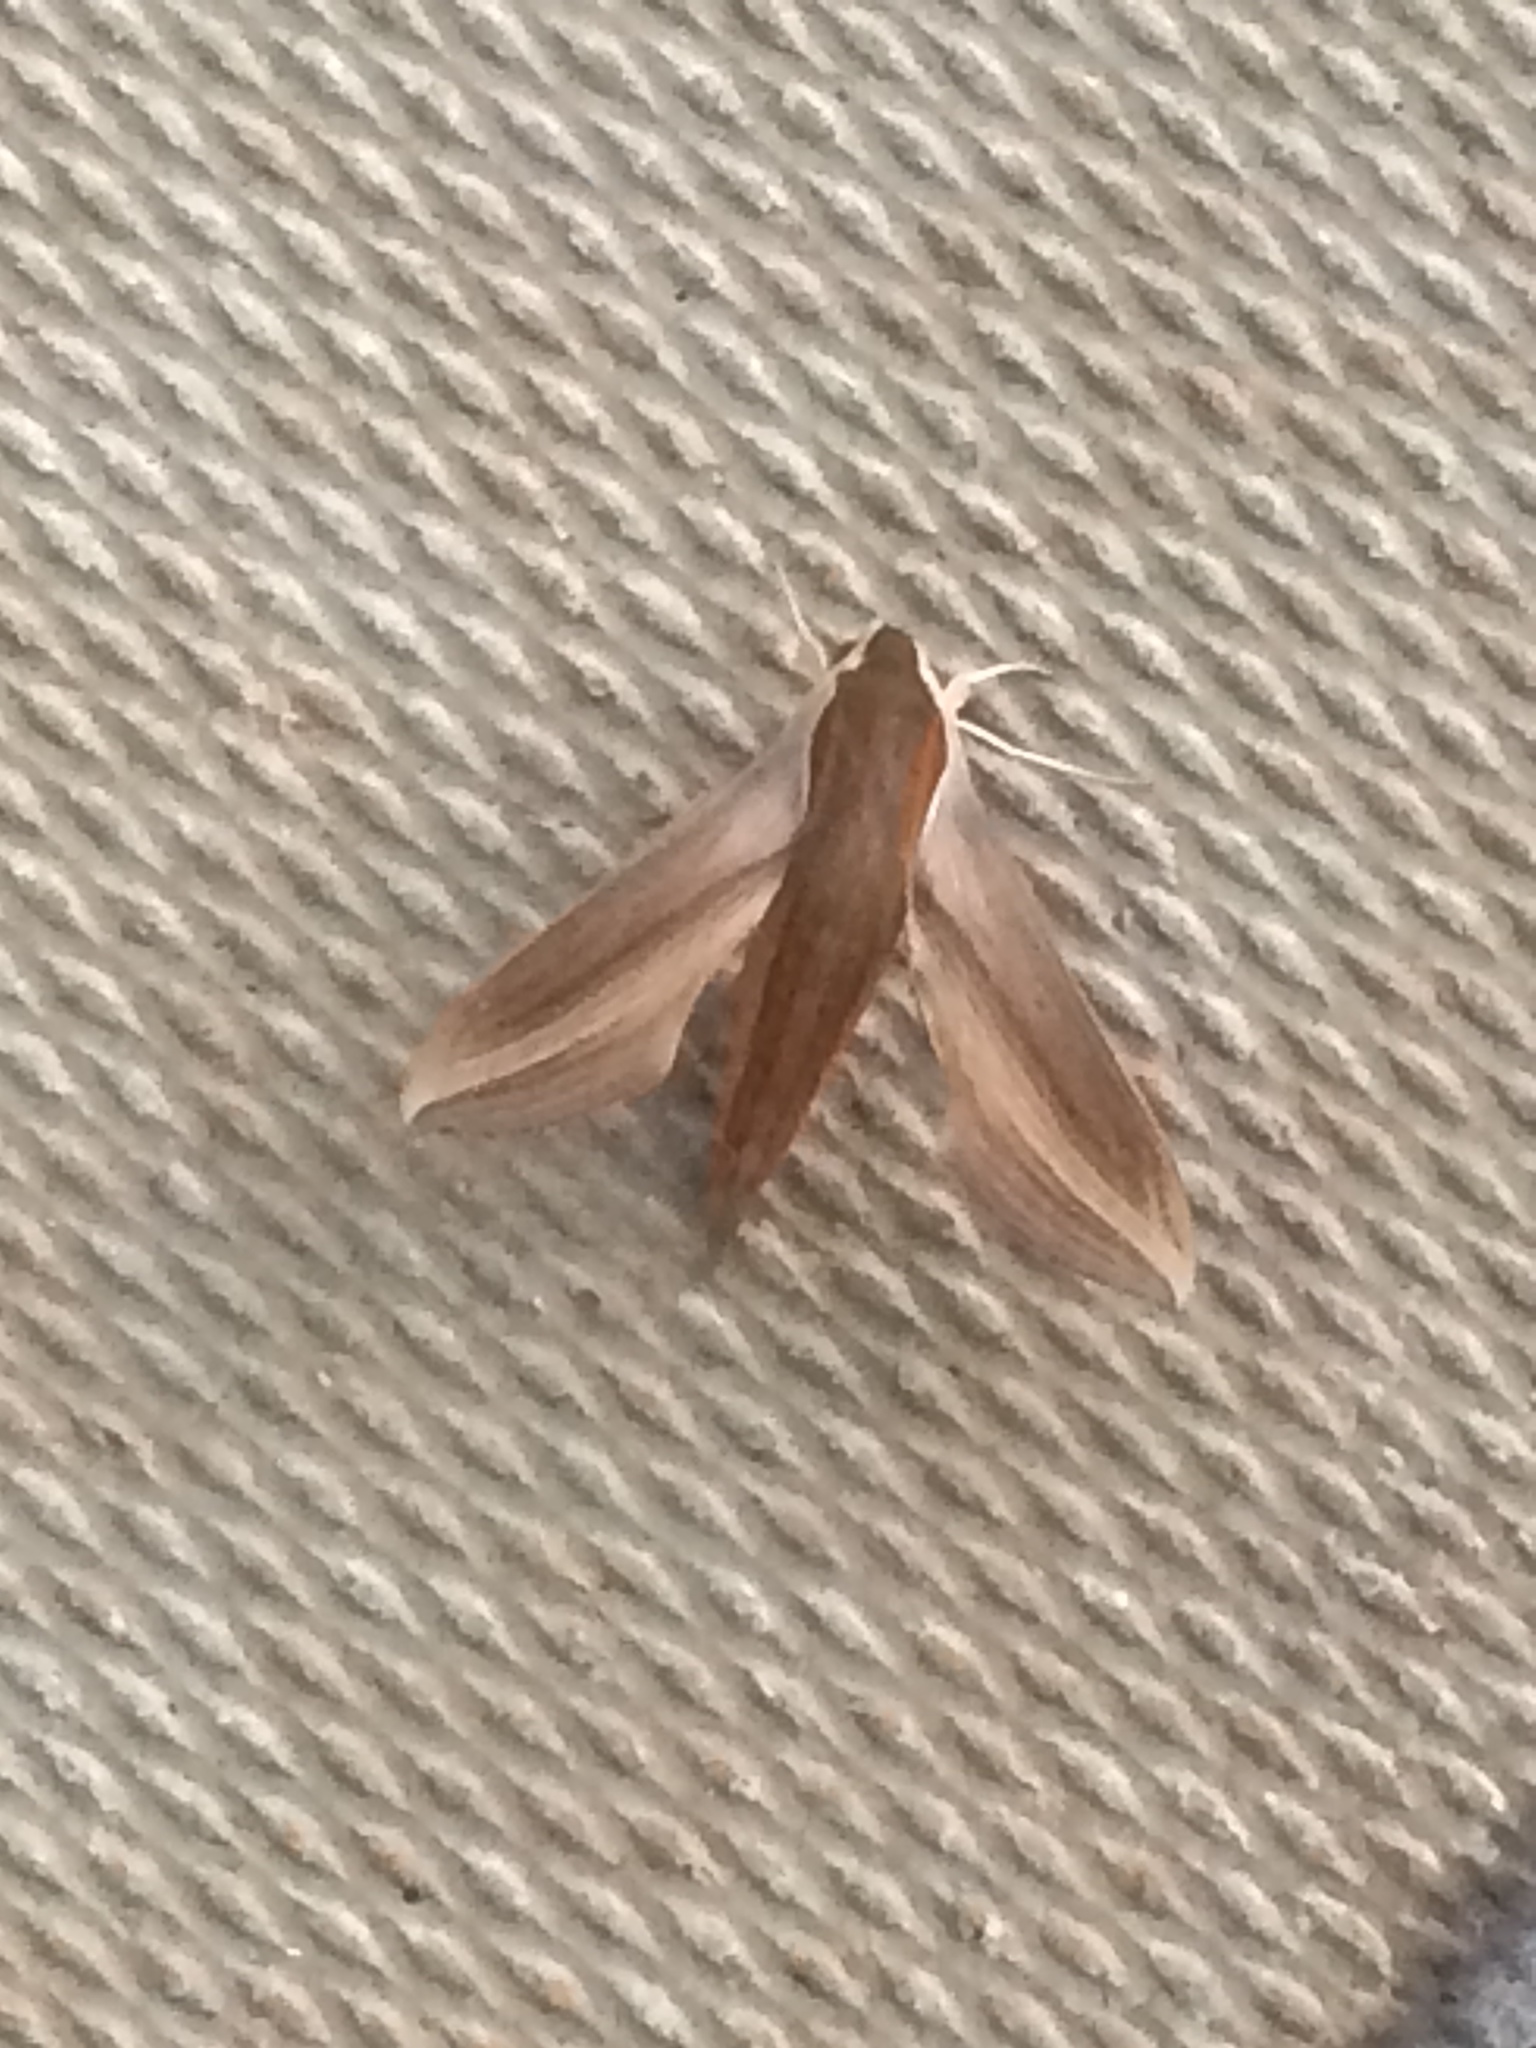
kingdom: Animalia
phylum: Arthropoda
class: Insecta
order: Lepidoptera
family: Sphingidae
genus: Xylophanes
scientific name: Xylophanes tersa
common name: Tersa sphinx
